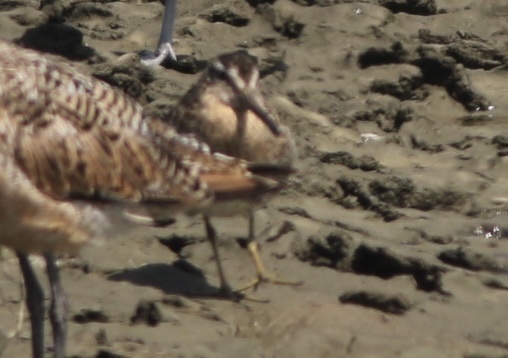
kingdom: Animalia
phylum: Chordata
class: Aves
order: Charadriiformes
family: Scolopacidae
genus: Limnodromus
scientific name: Limnodromus griseus
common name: Short-billed dowitcher
